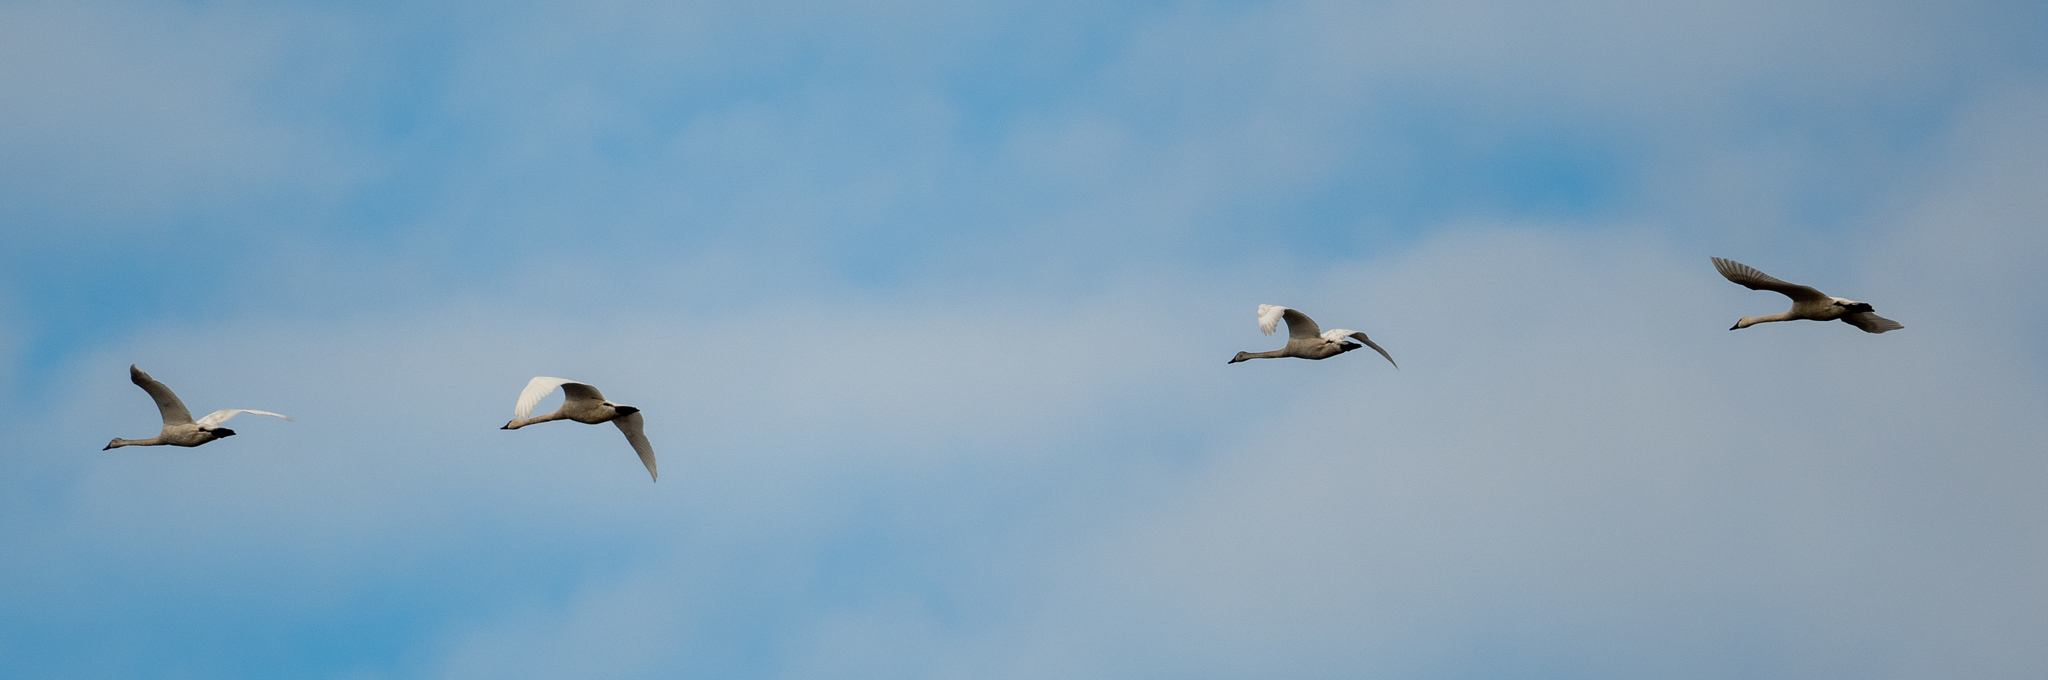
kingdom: Animalia
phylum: Chordata
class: Aves
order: Anseriformes
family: Anatidae
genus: Cygnus
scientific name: Cygnus columbianus
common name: Tundra swan
